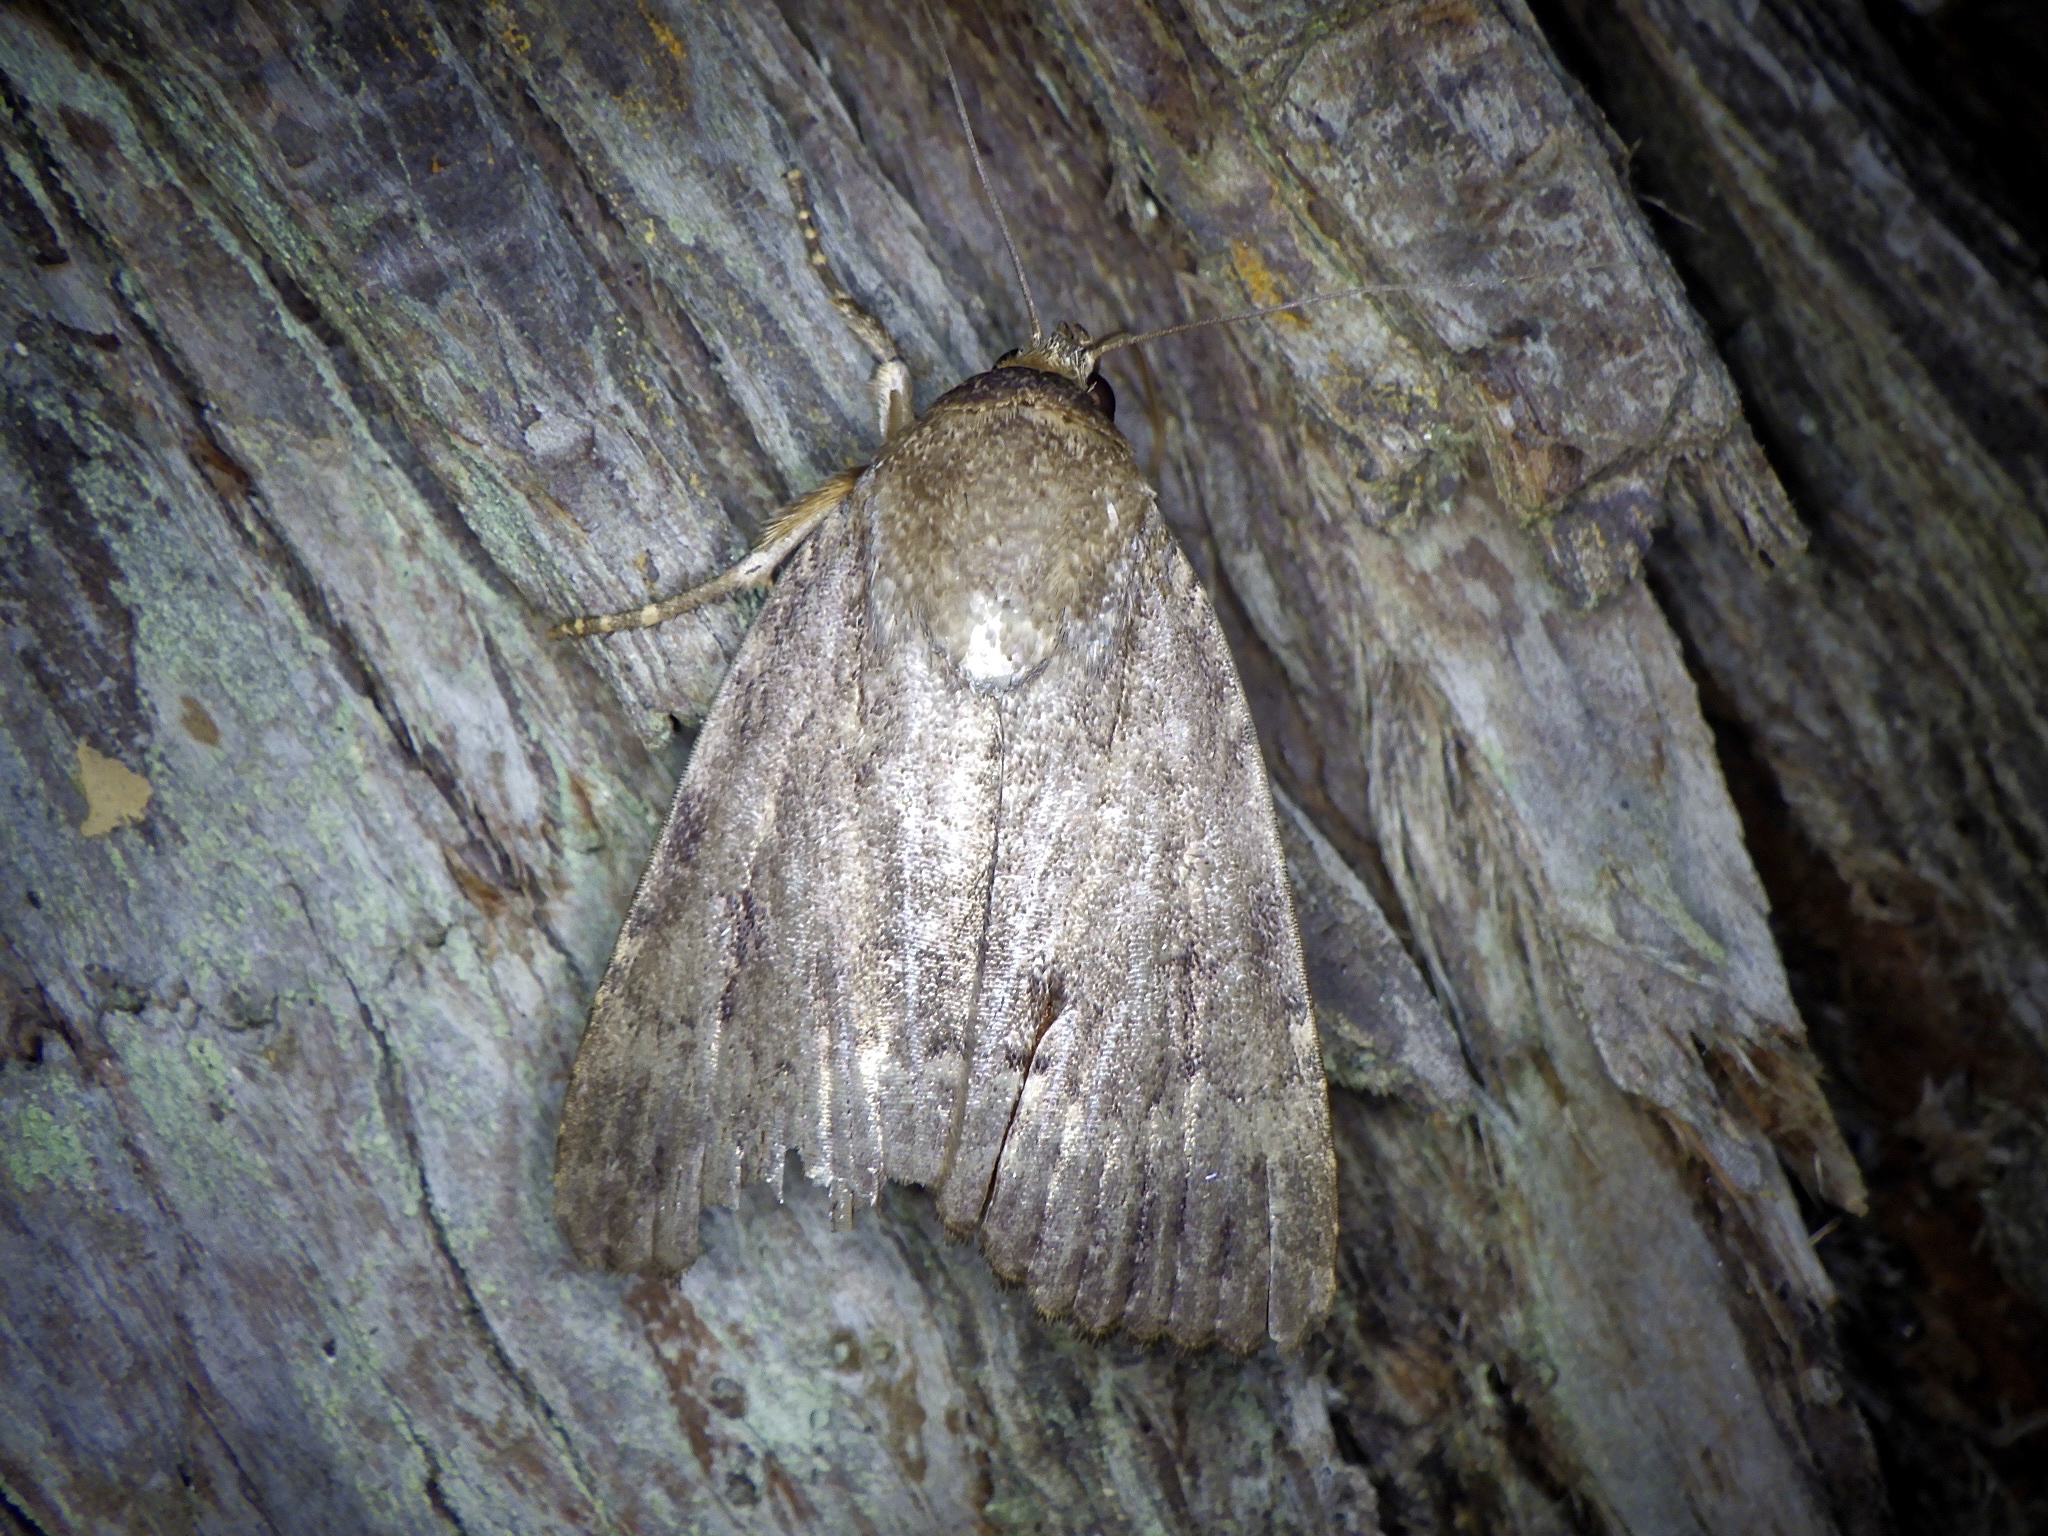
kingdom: Animalia
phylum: Arthropoda
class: Insecta
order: Lepidoptera
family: Noctuidae
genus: Amphipyra
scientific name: Amphipyra monolitha
